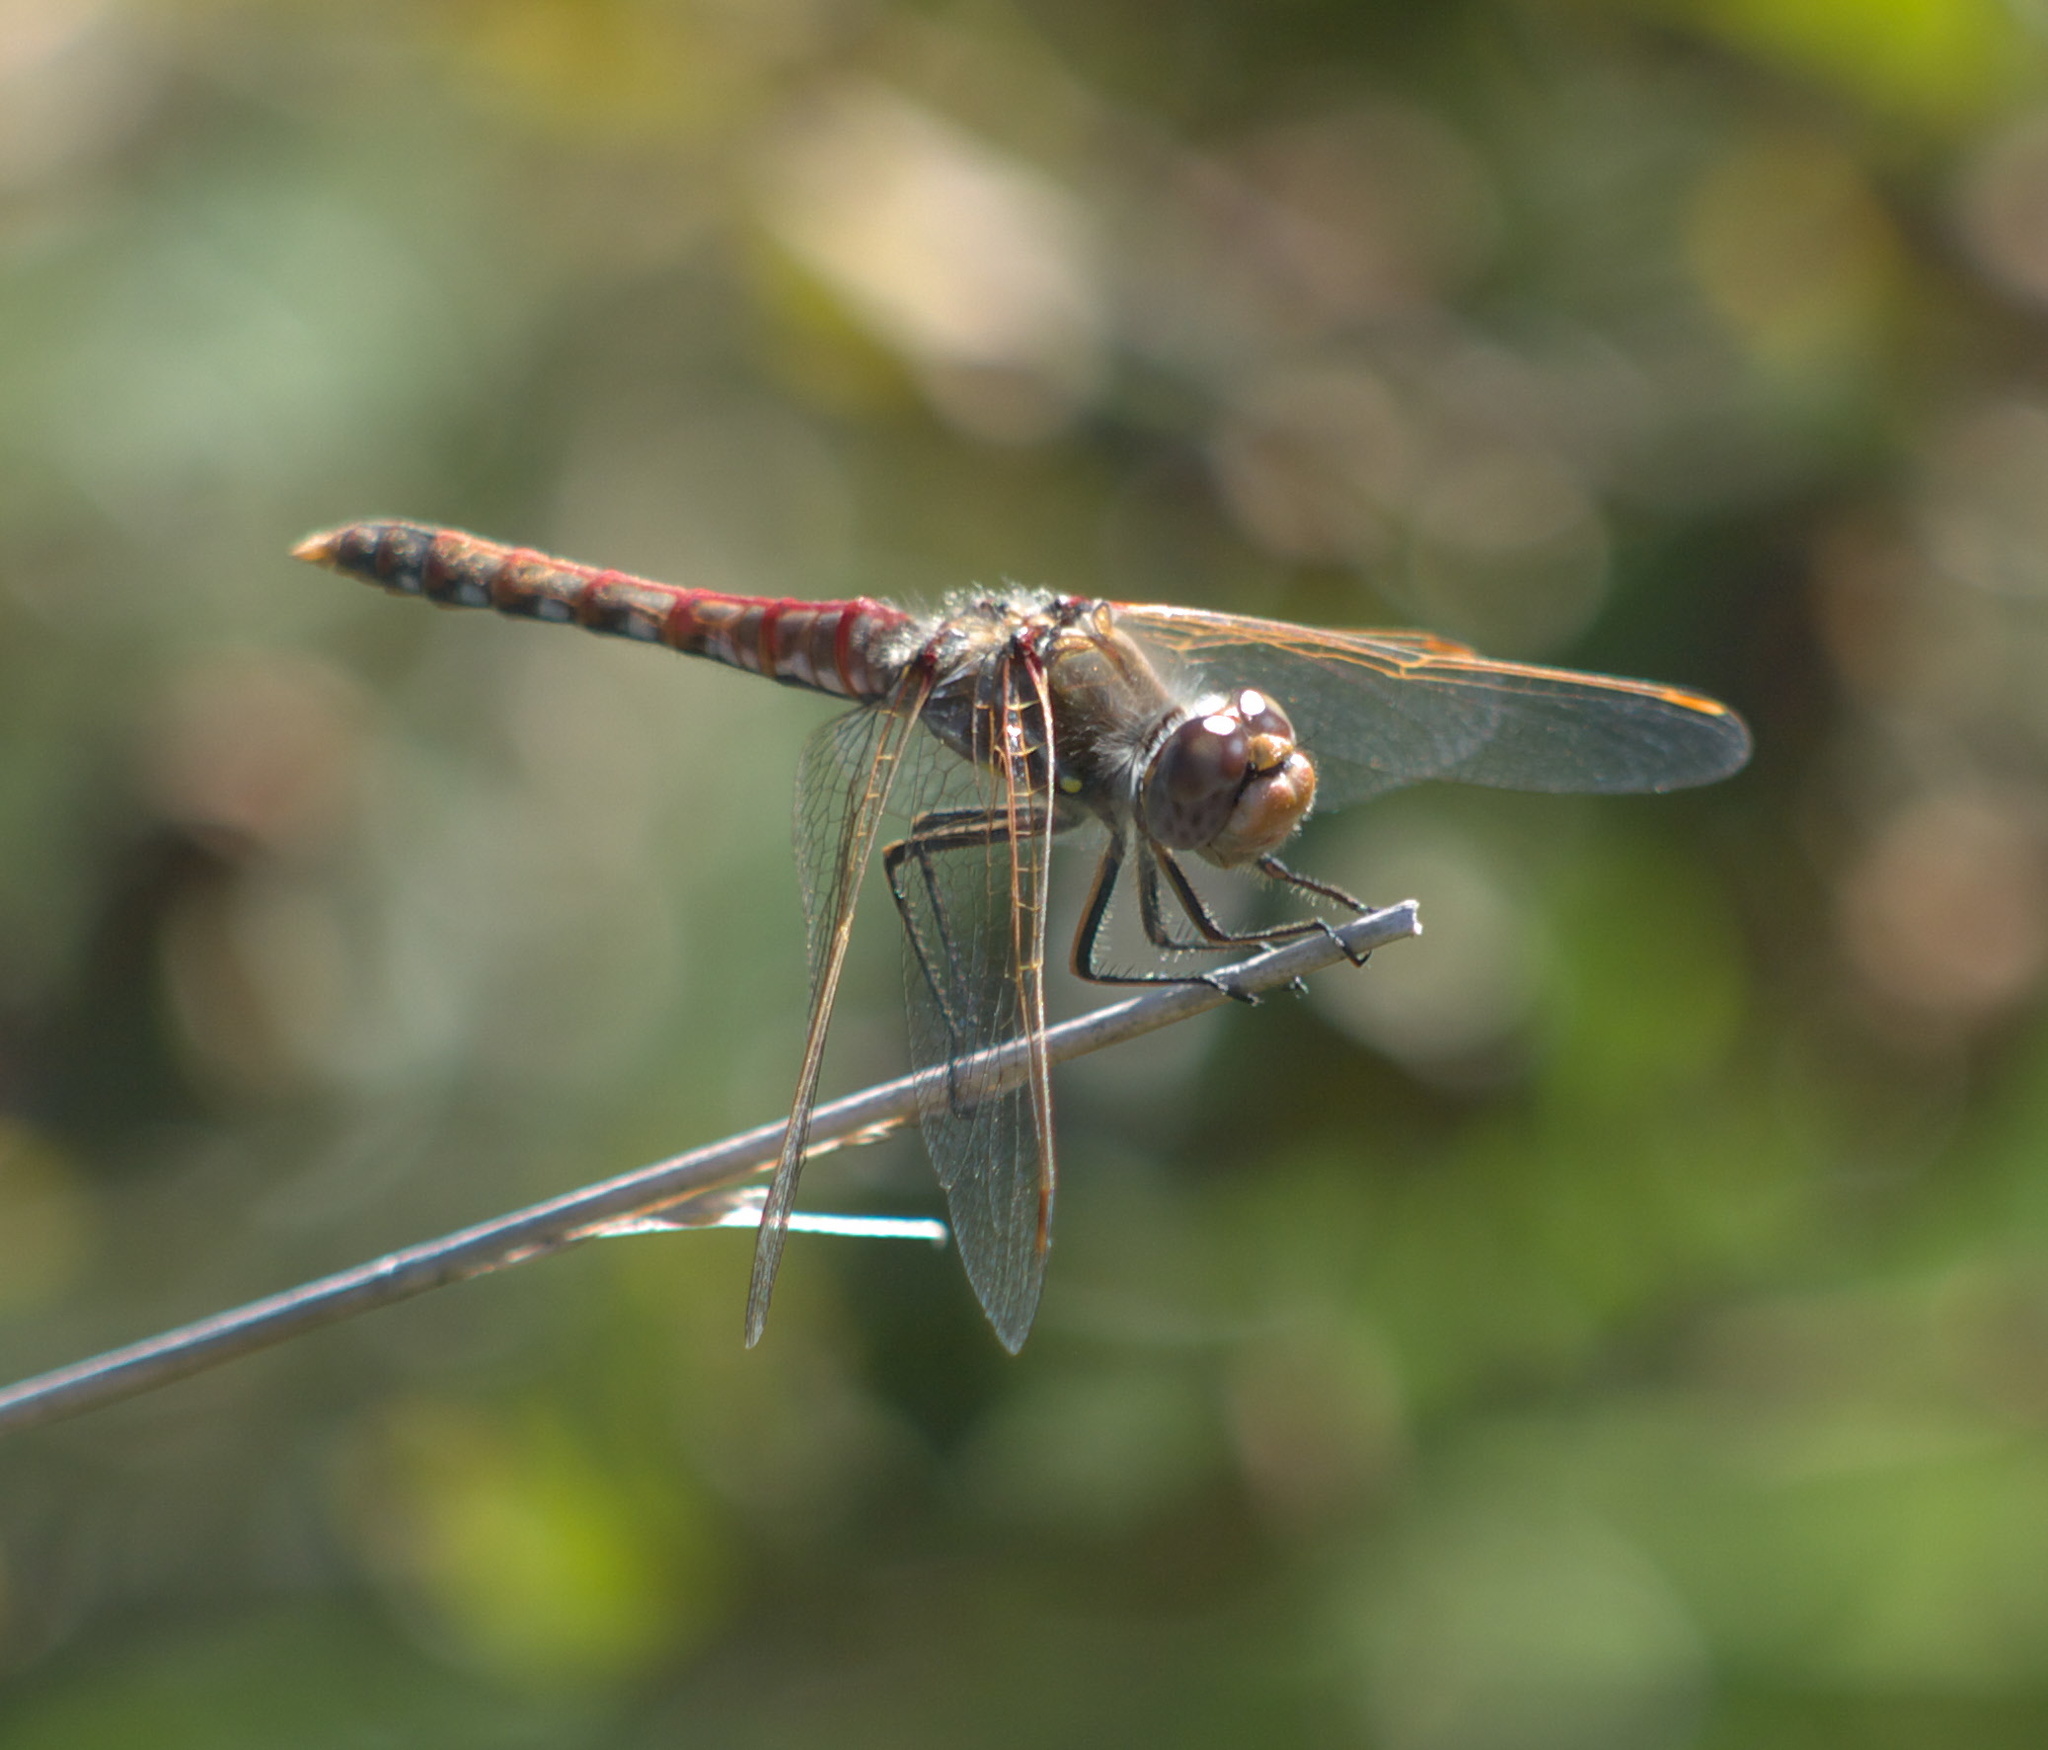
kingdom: Animalia
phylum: Arthropoda
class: Insecta
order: Odonata
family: Libellulidae
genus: Sympetrum
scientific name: Sympetrum corruptum
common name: Variegated meadowhawk
